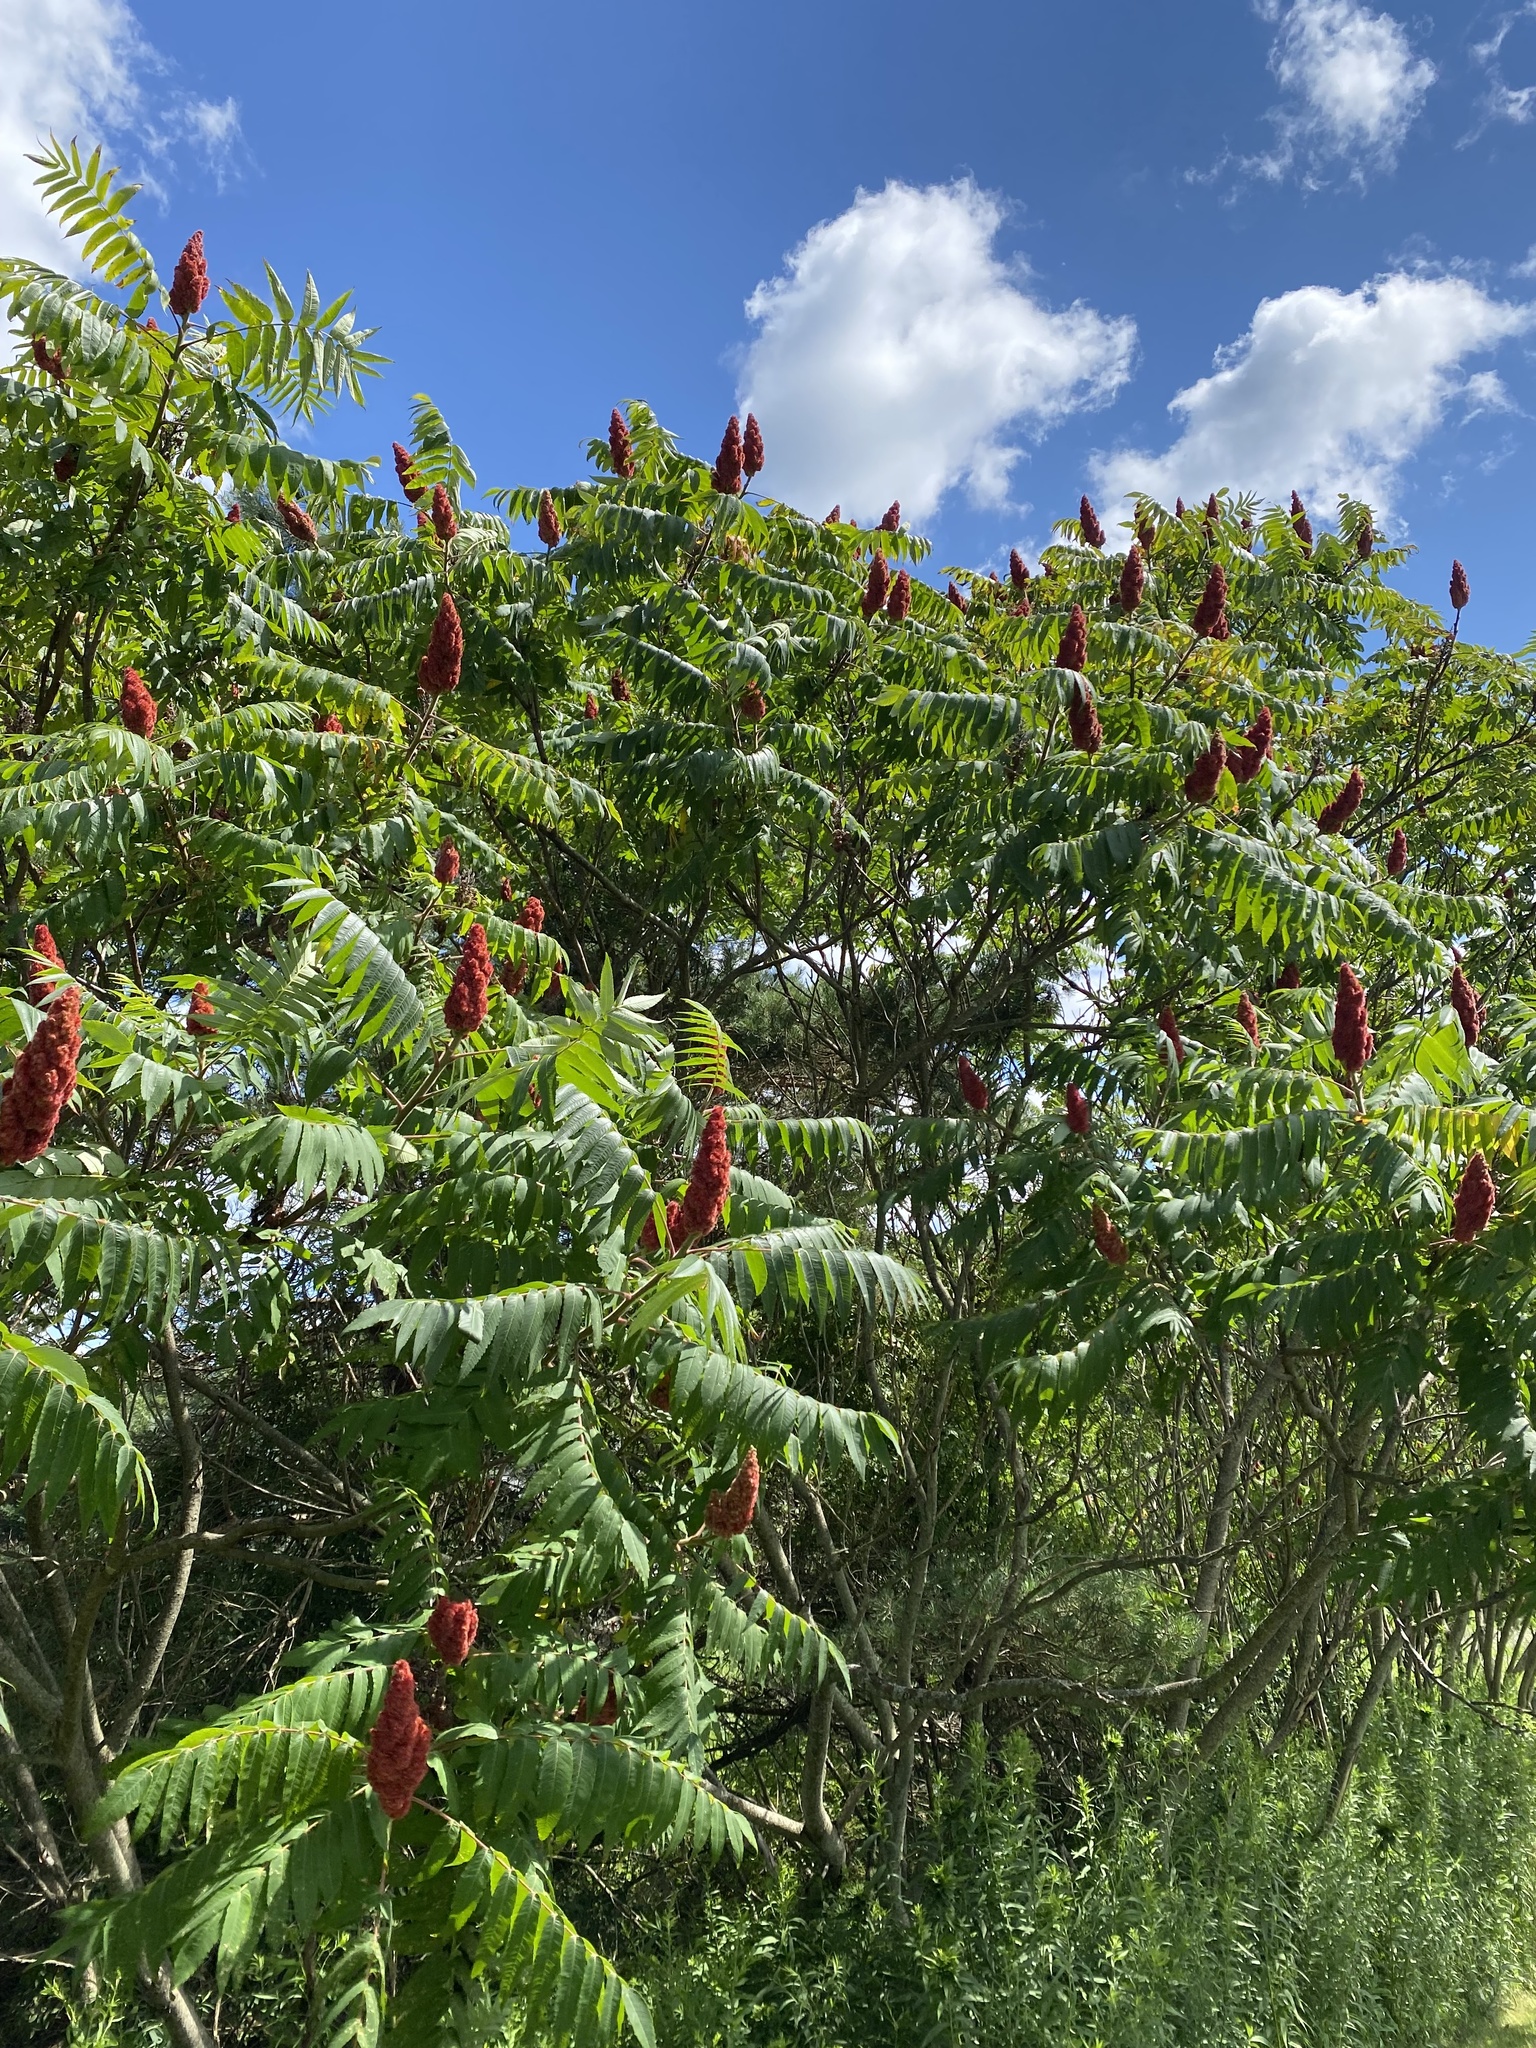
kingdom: Plantae
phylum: Tracheophyta
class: Magnoliopsida
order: Sapindales
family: Anacardiaceae
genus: Rhus
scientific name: Rhus typhina
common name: Staghorn sumac
